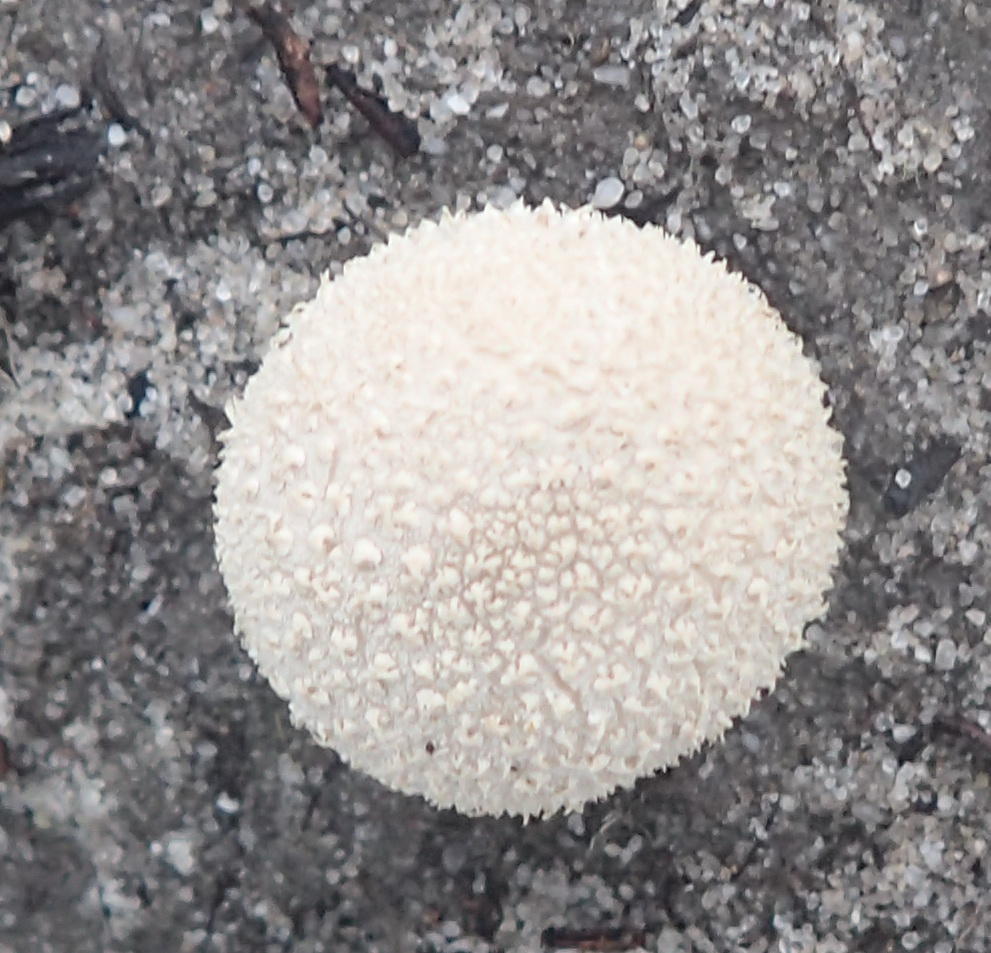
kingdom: Fungi
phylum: Basidiomycota
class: Agaricomycetes
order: Agaricales
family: Lycoperdaceae
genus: Lycoperdon
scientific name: Lycoperdon pratense
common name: Meadow puffball
